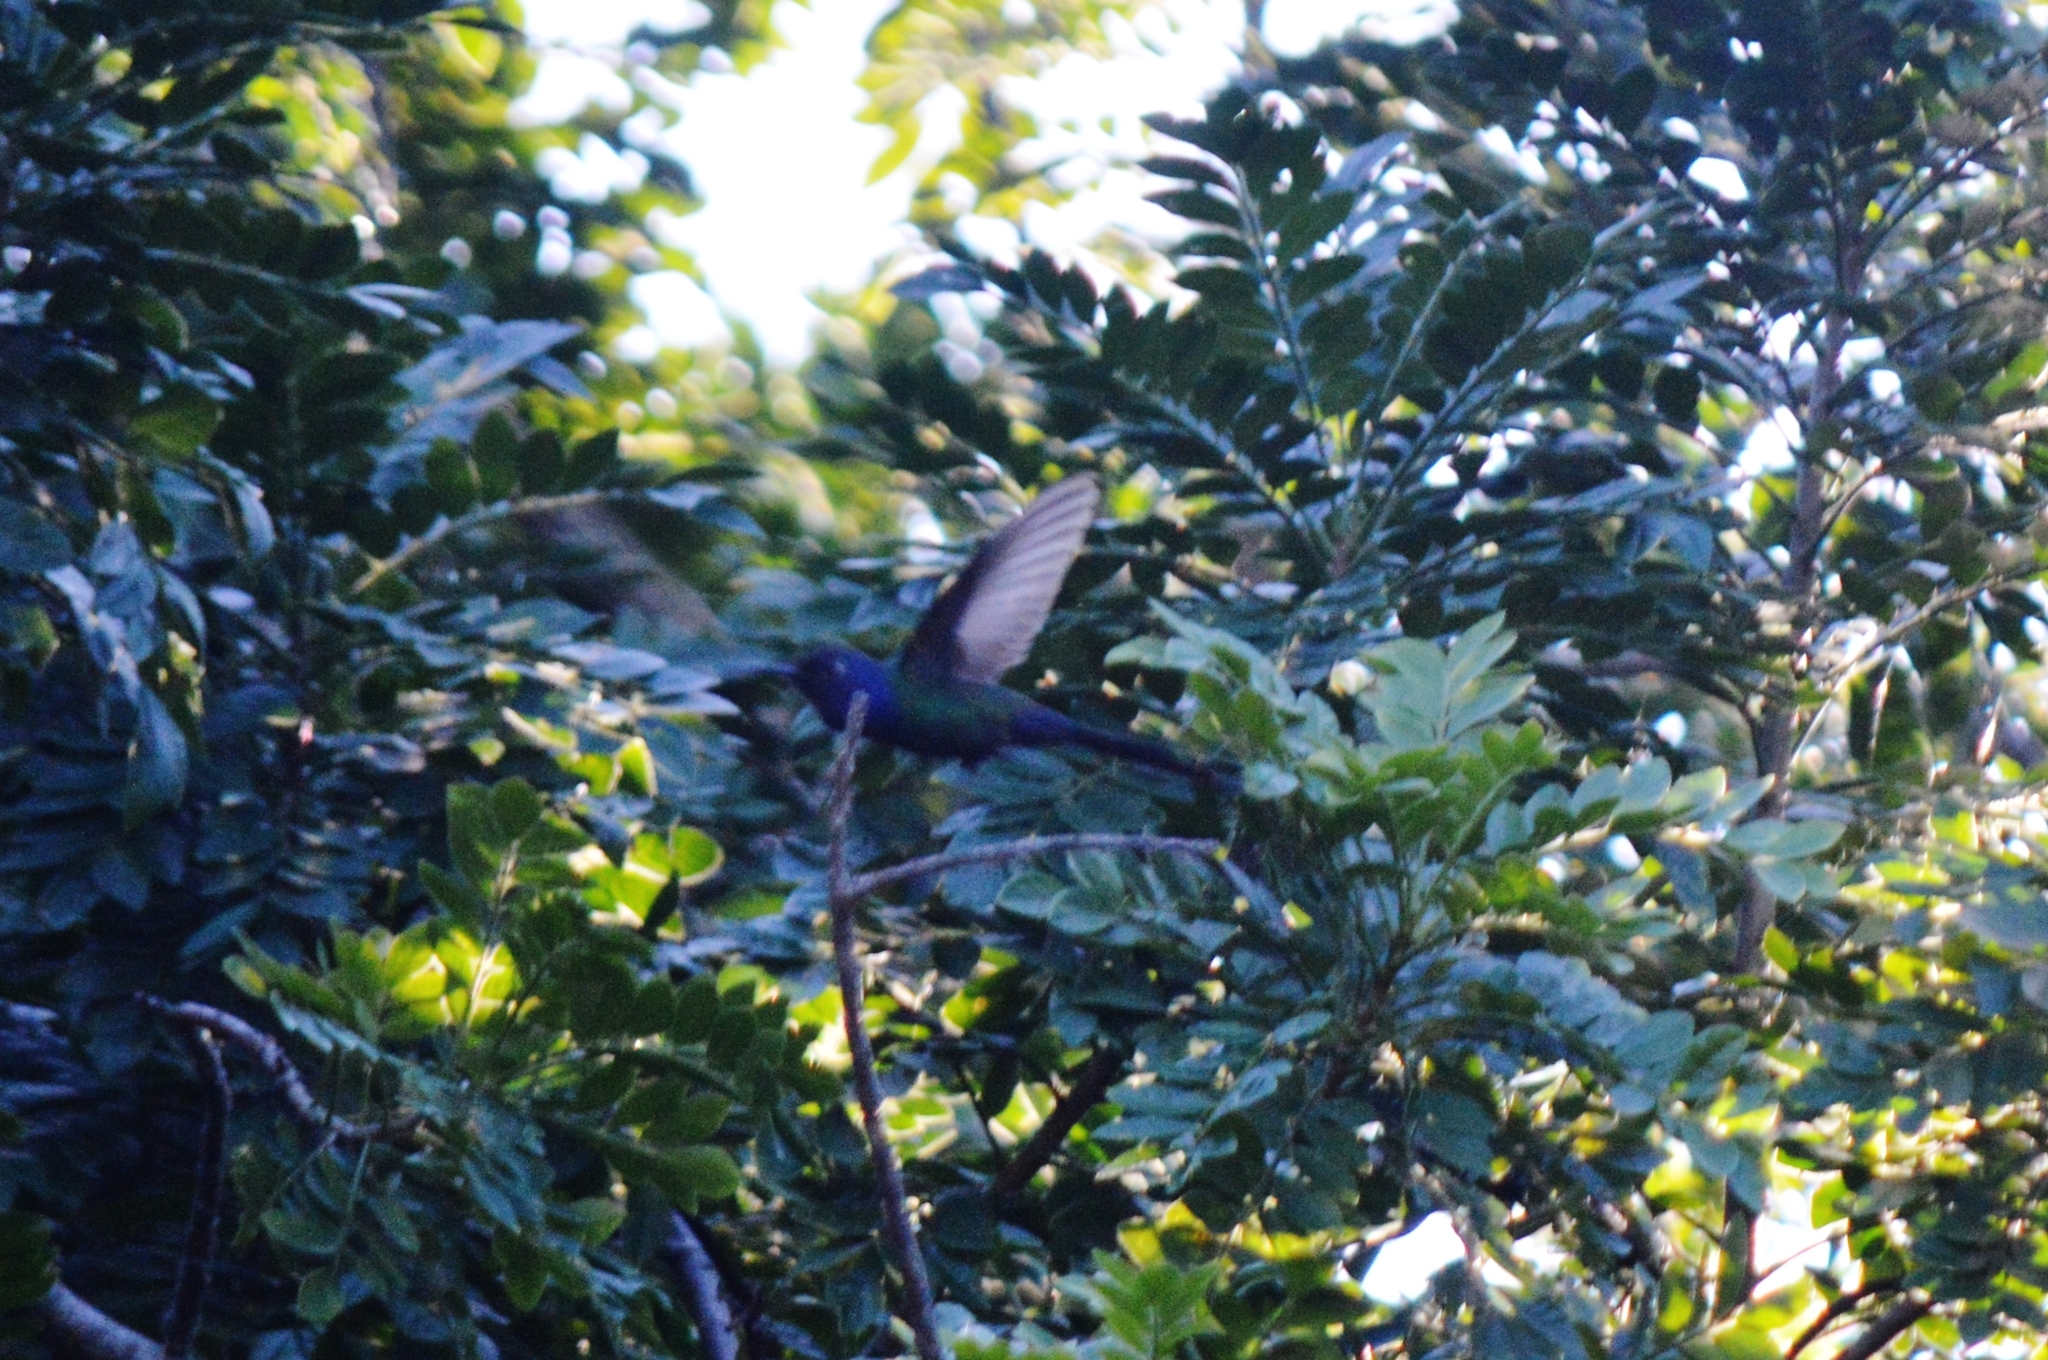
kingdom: Animalia
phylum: Chordata
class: Aves
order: Apodiformes
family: Trochilidae
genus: Eupetomena
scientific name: Eupetomena macroura
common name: Swallow-tailed hummingbird
